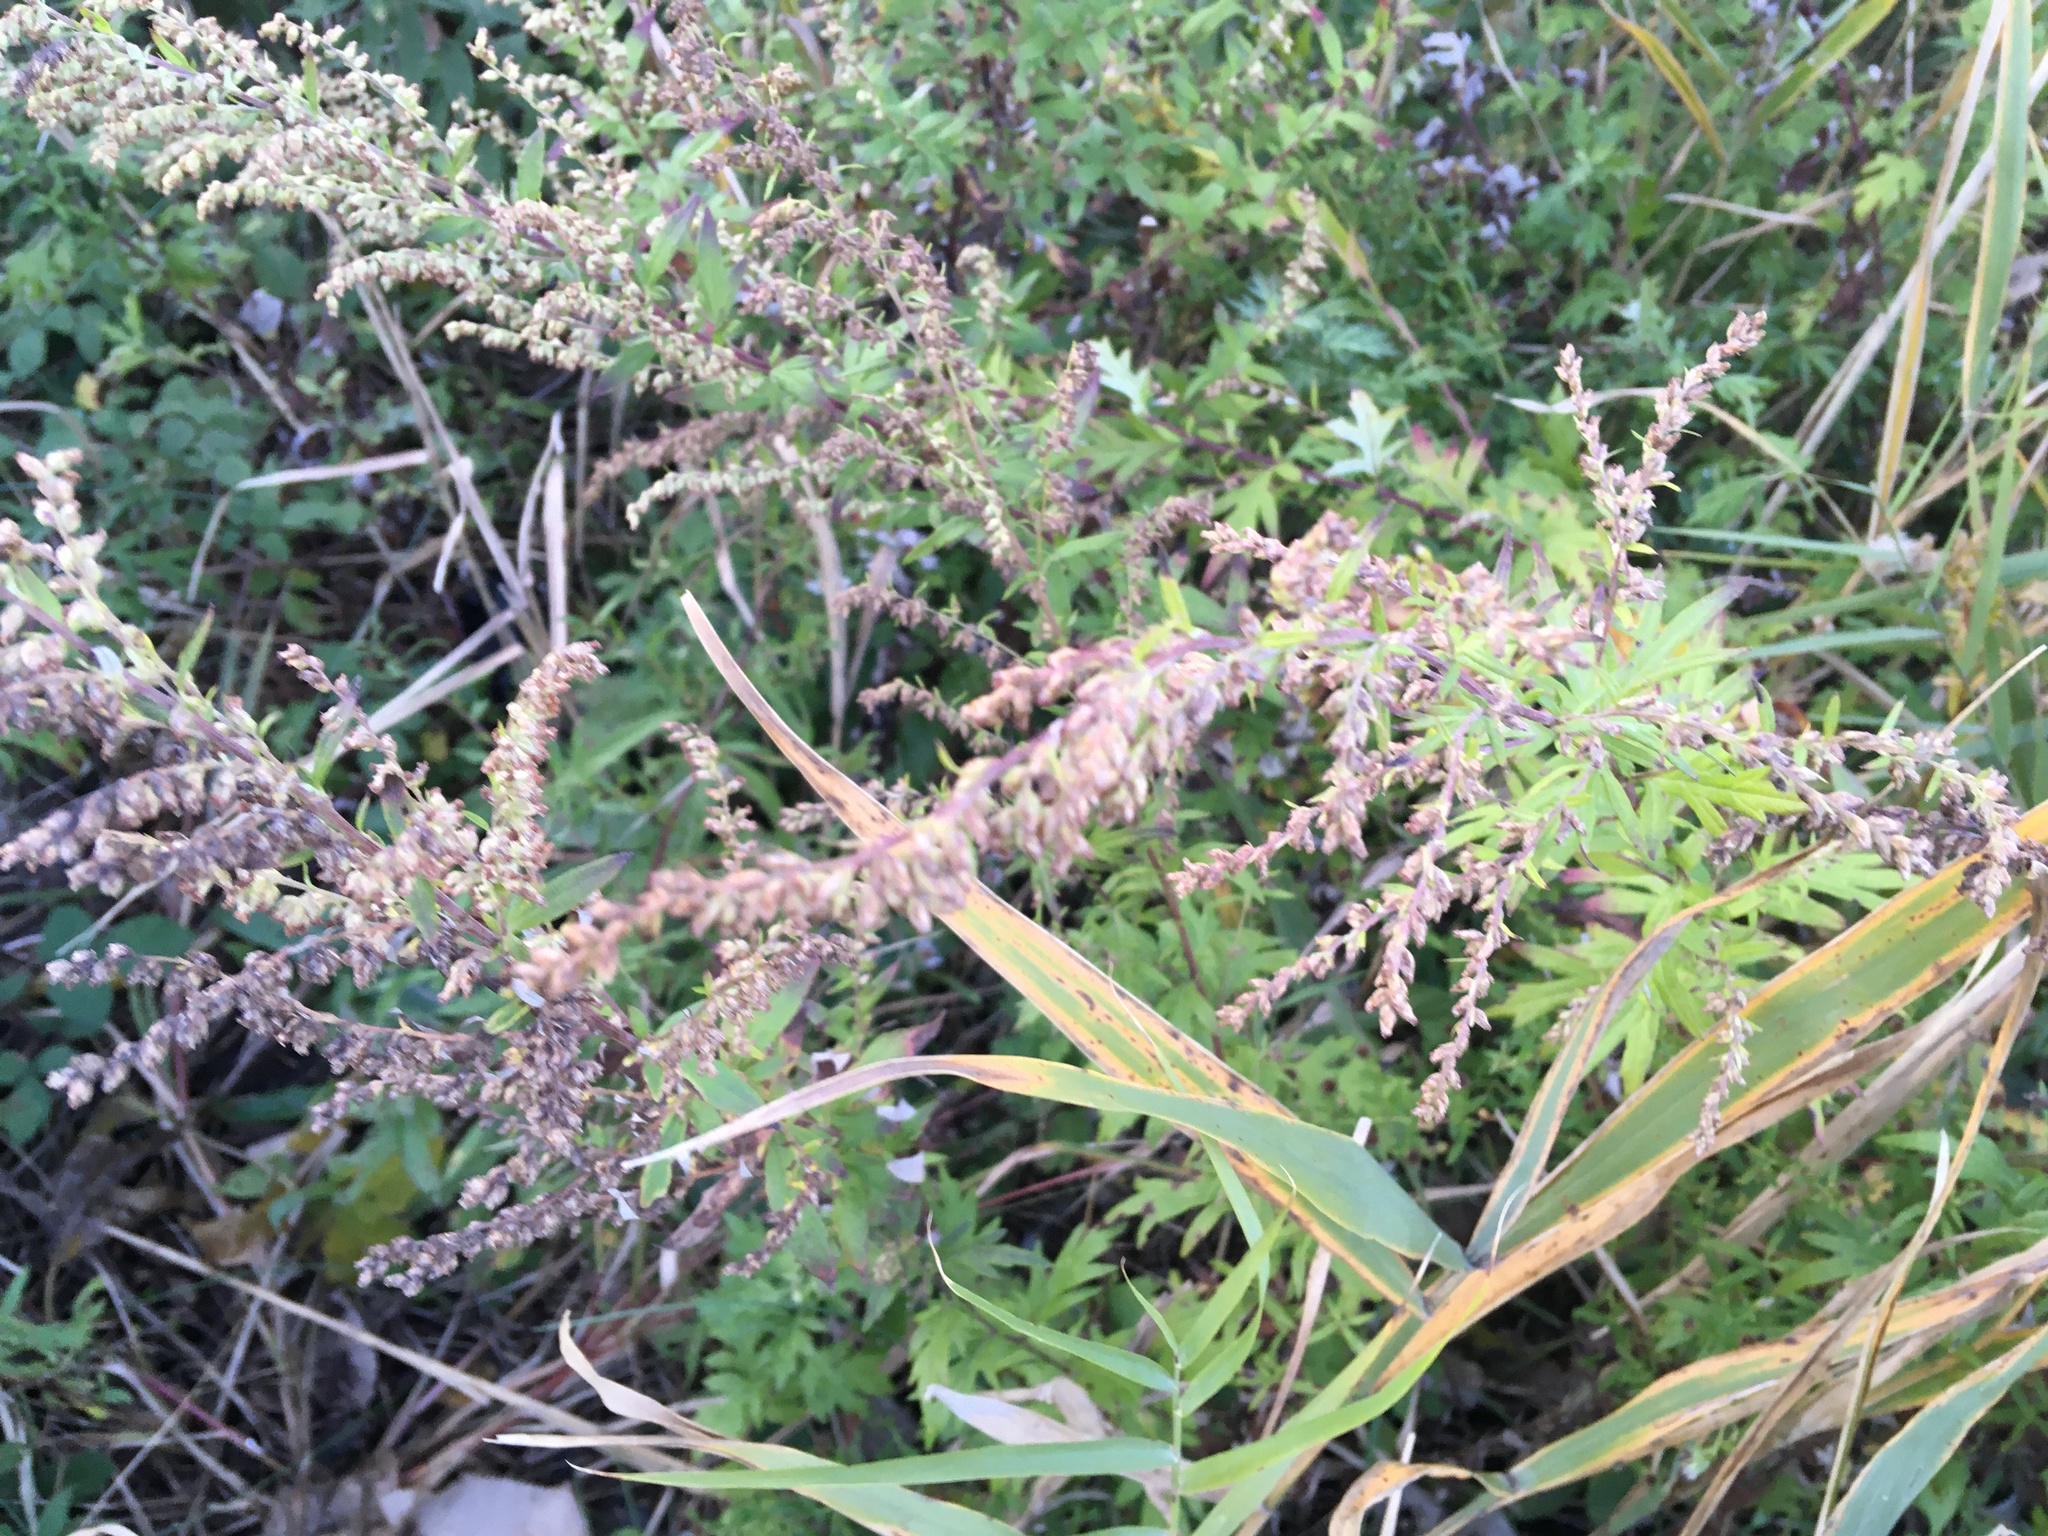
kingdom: Plantae
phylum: Tracheophyta
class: Magnoliopsida
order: Asterales
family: Asteraceae
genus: Artemisia
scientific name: Artemisia vulgaris
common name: Mugwort
